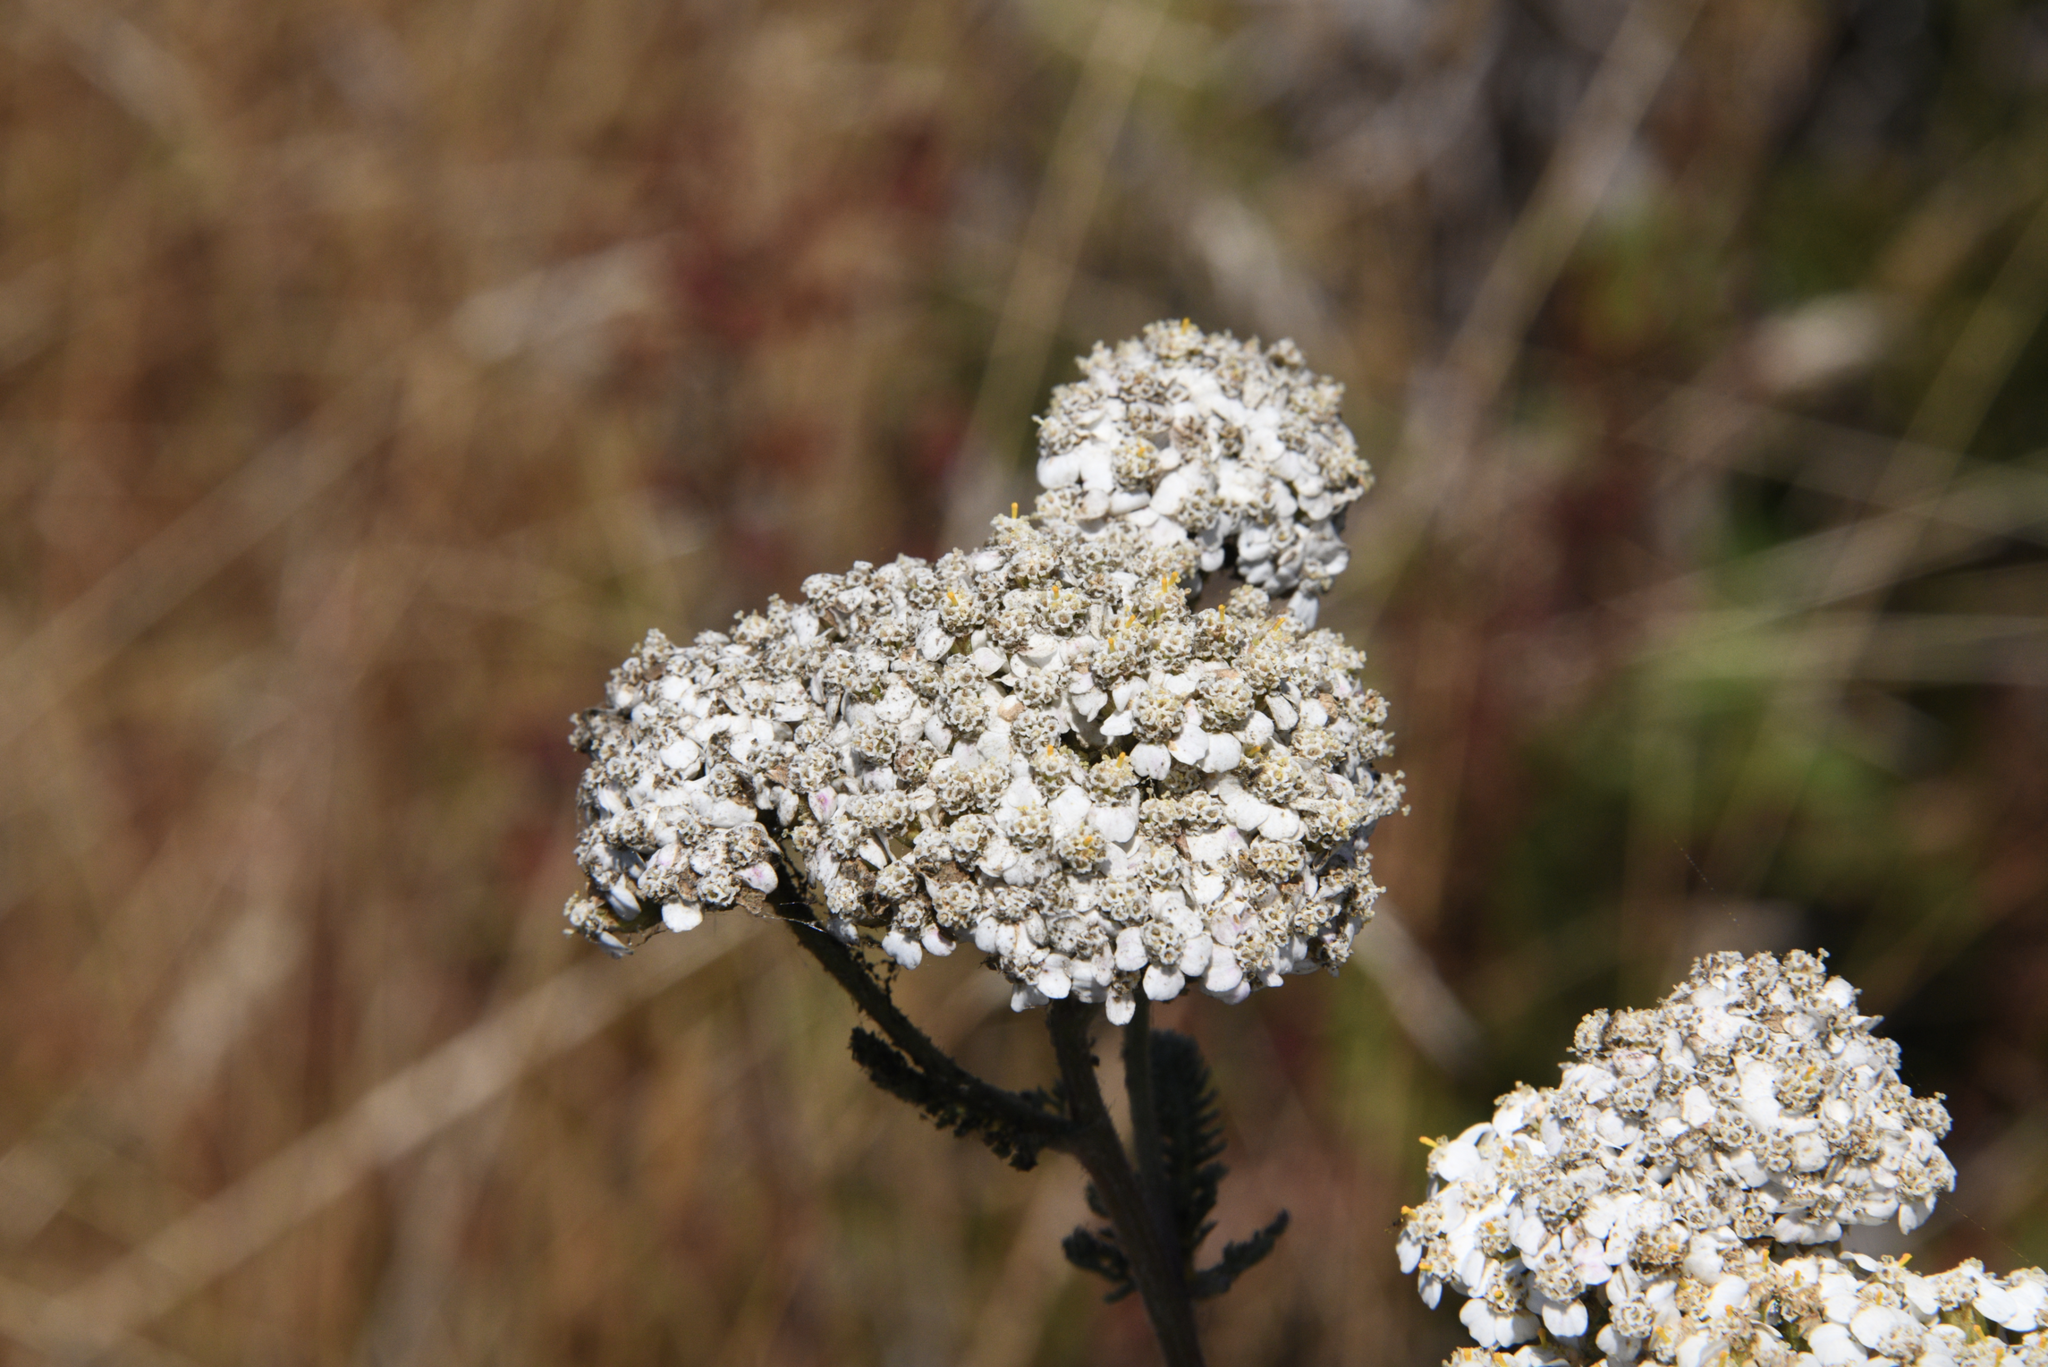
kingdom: Plantae
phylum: Tracheophyta
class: Magnoliopsida
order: Asterales
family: Asteraceae
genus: Achillea
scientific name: Achillea millefolium
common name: Yarrow
